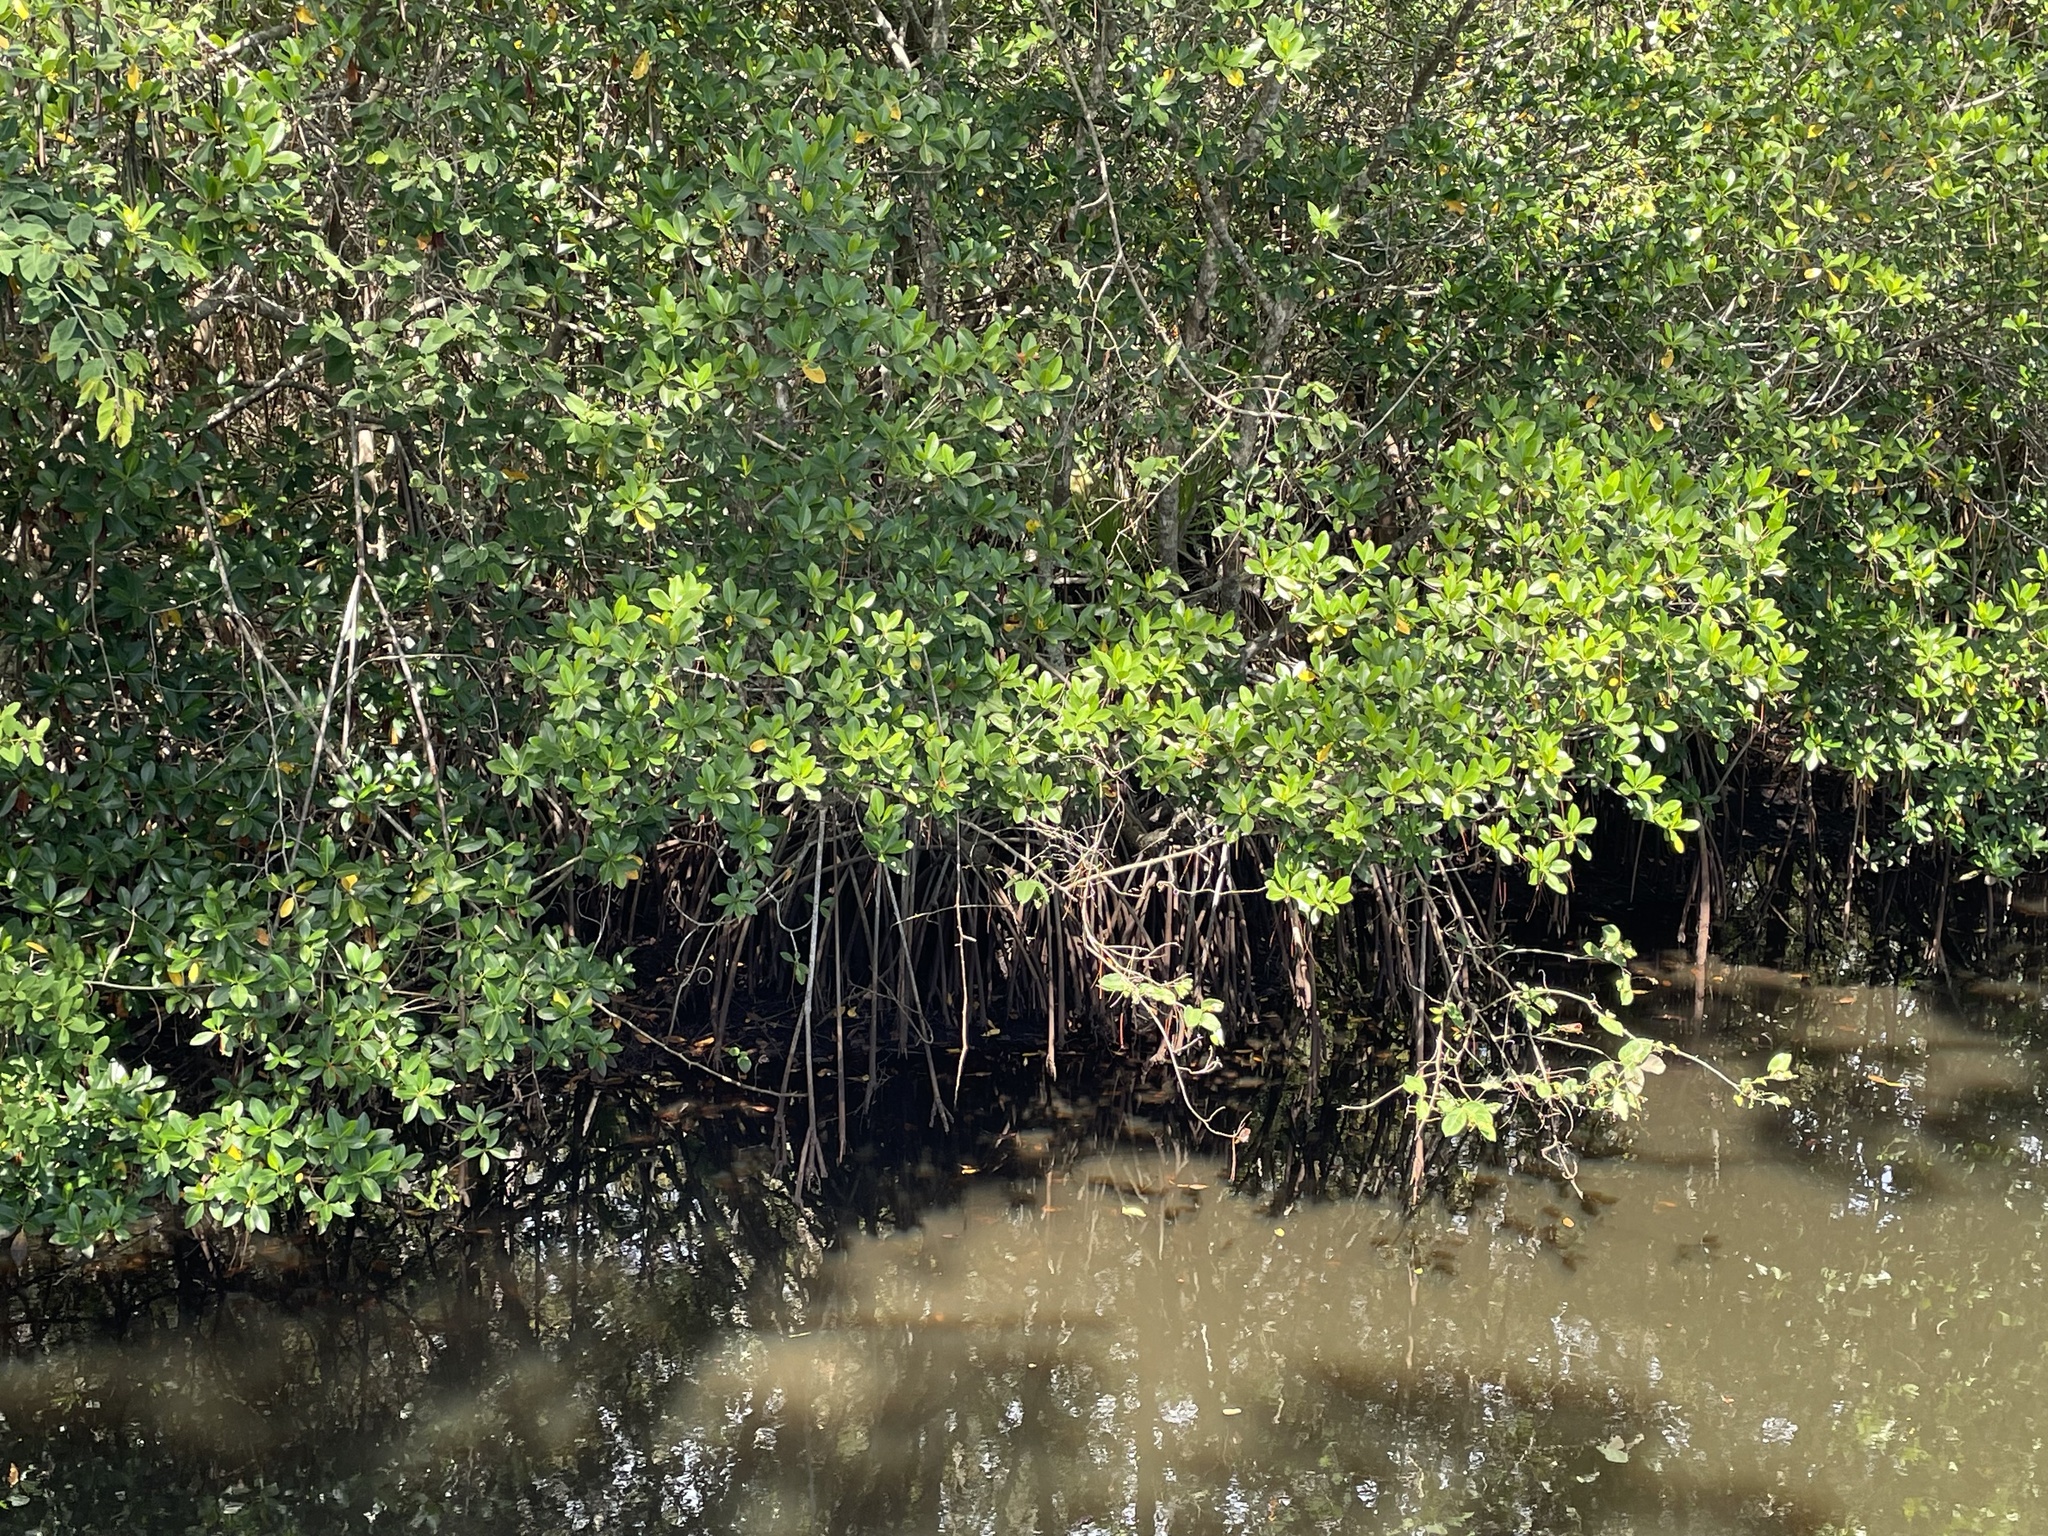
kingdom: Plantae
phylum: Tracheophyta
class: Magnoliopsida
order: Malpighiales
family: Rhizophoraceae
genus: Rhizophora
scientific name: Rhizophora mangle
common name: Red mangrove
